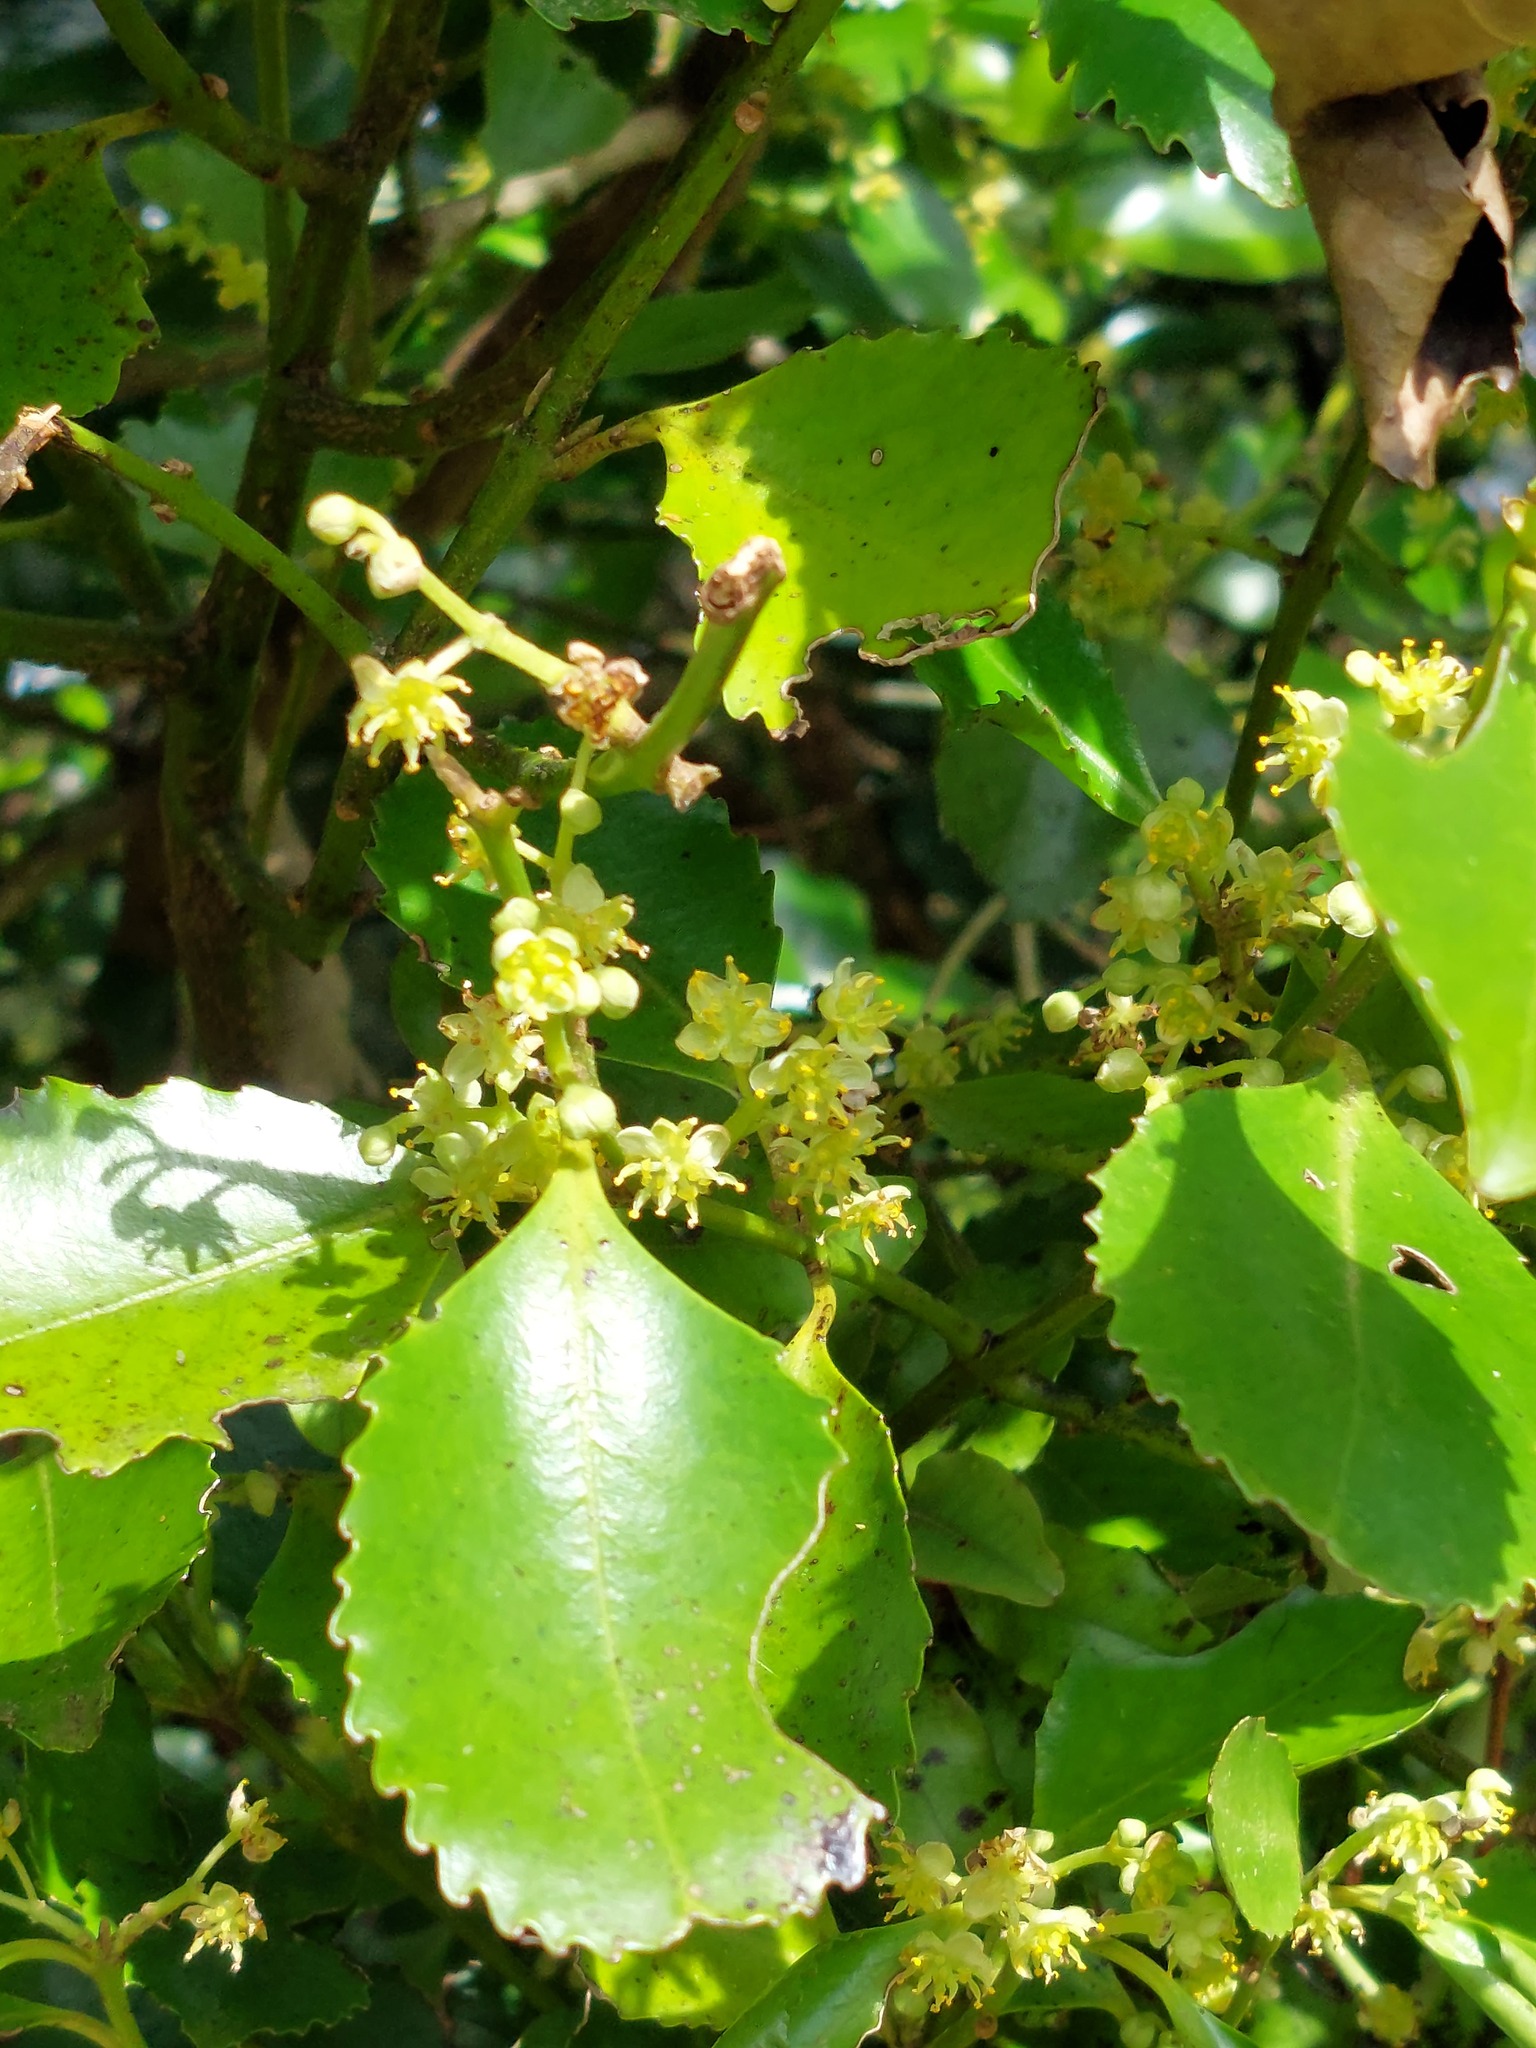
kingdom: Plantae
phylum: Tracheophyta
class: Magnoliopsida
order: Laurales
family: Atherospermataceae
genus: Laurelia
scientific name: Laurelia novae-zelandiae
